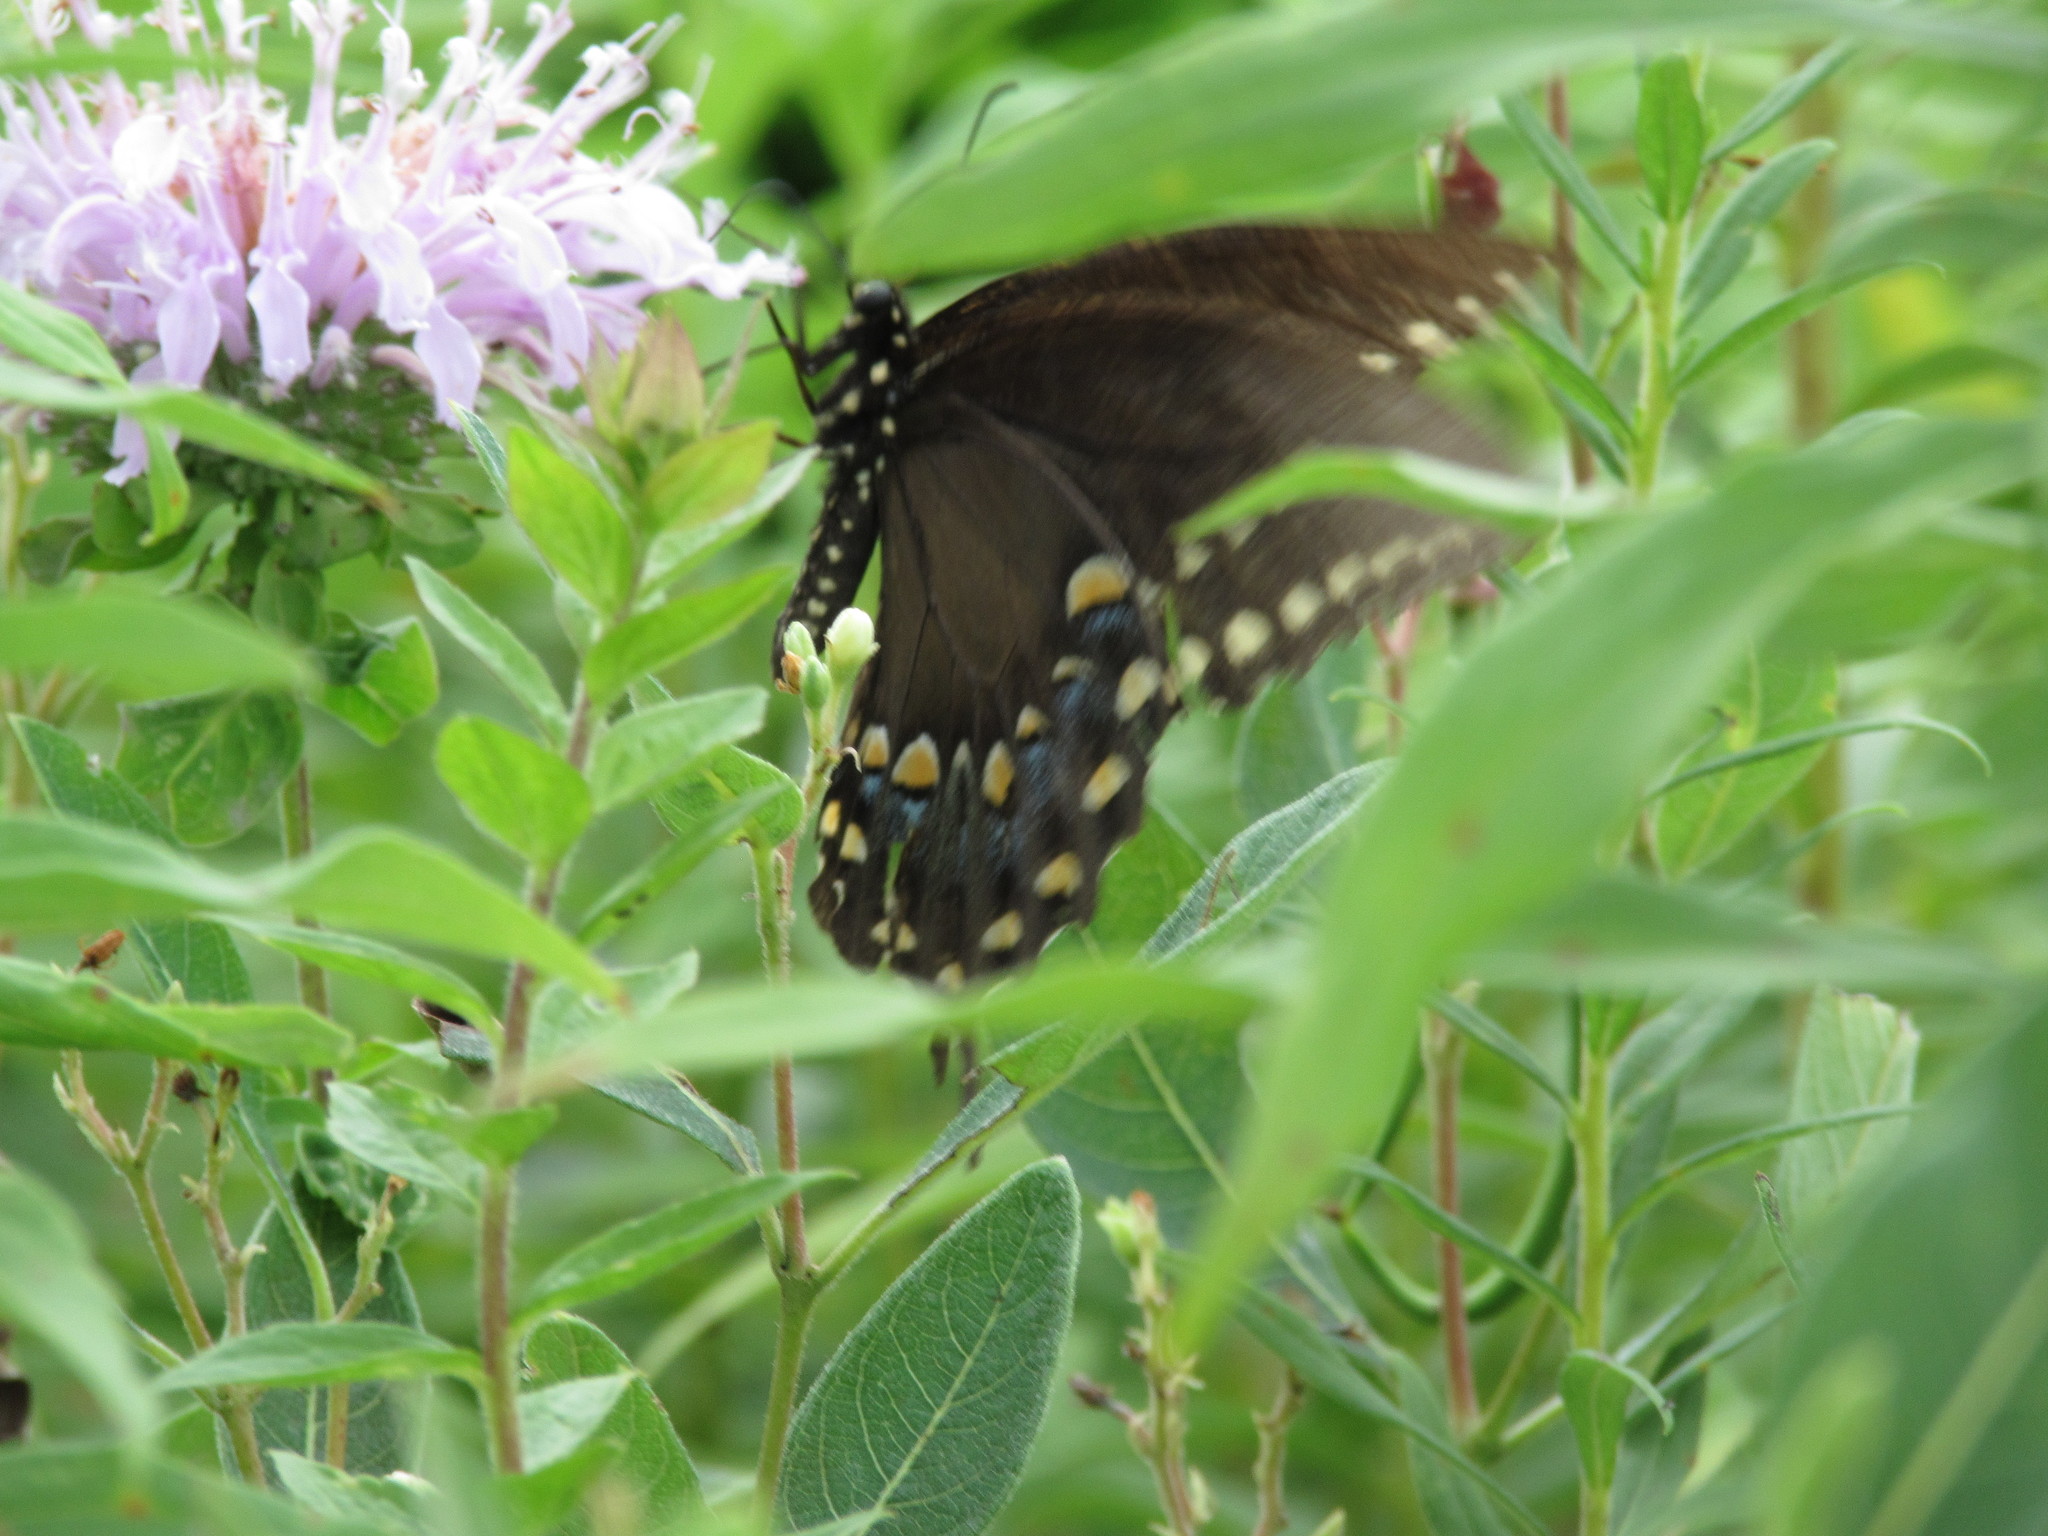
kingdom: Animalia
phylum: Arthropoda
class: Insecta
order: Lepidoptera
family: Papilionidae
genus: Papilio
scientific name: Papilio troilus
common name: Spicebush swallowtail
